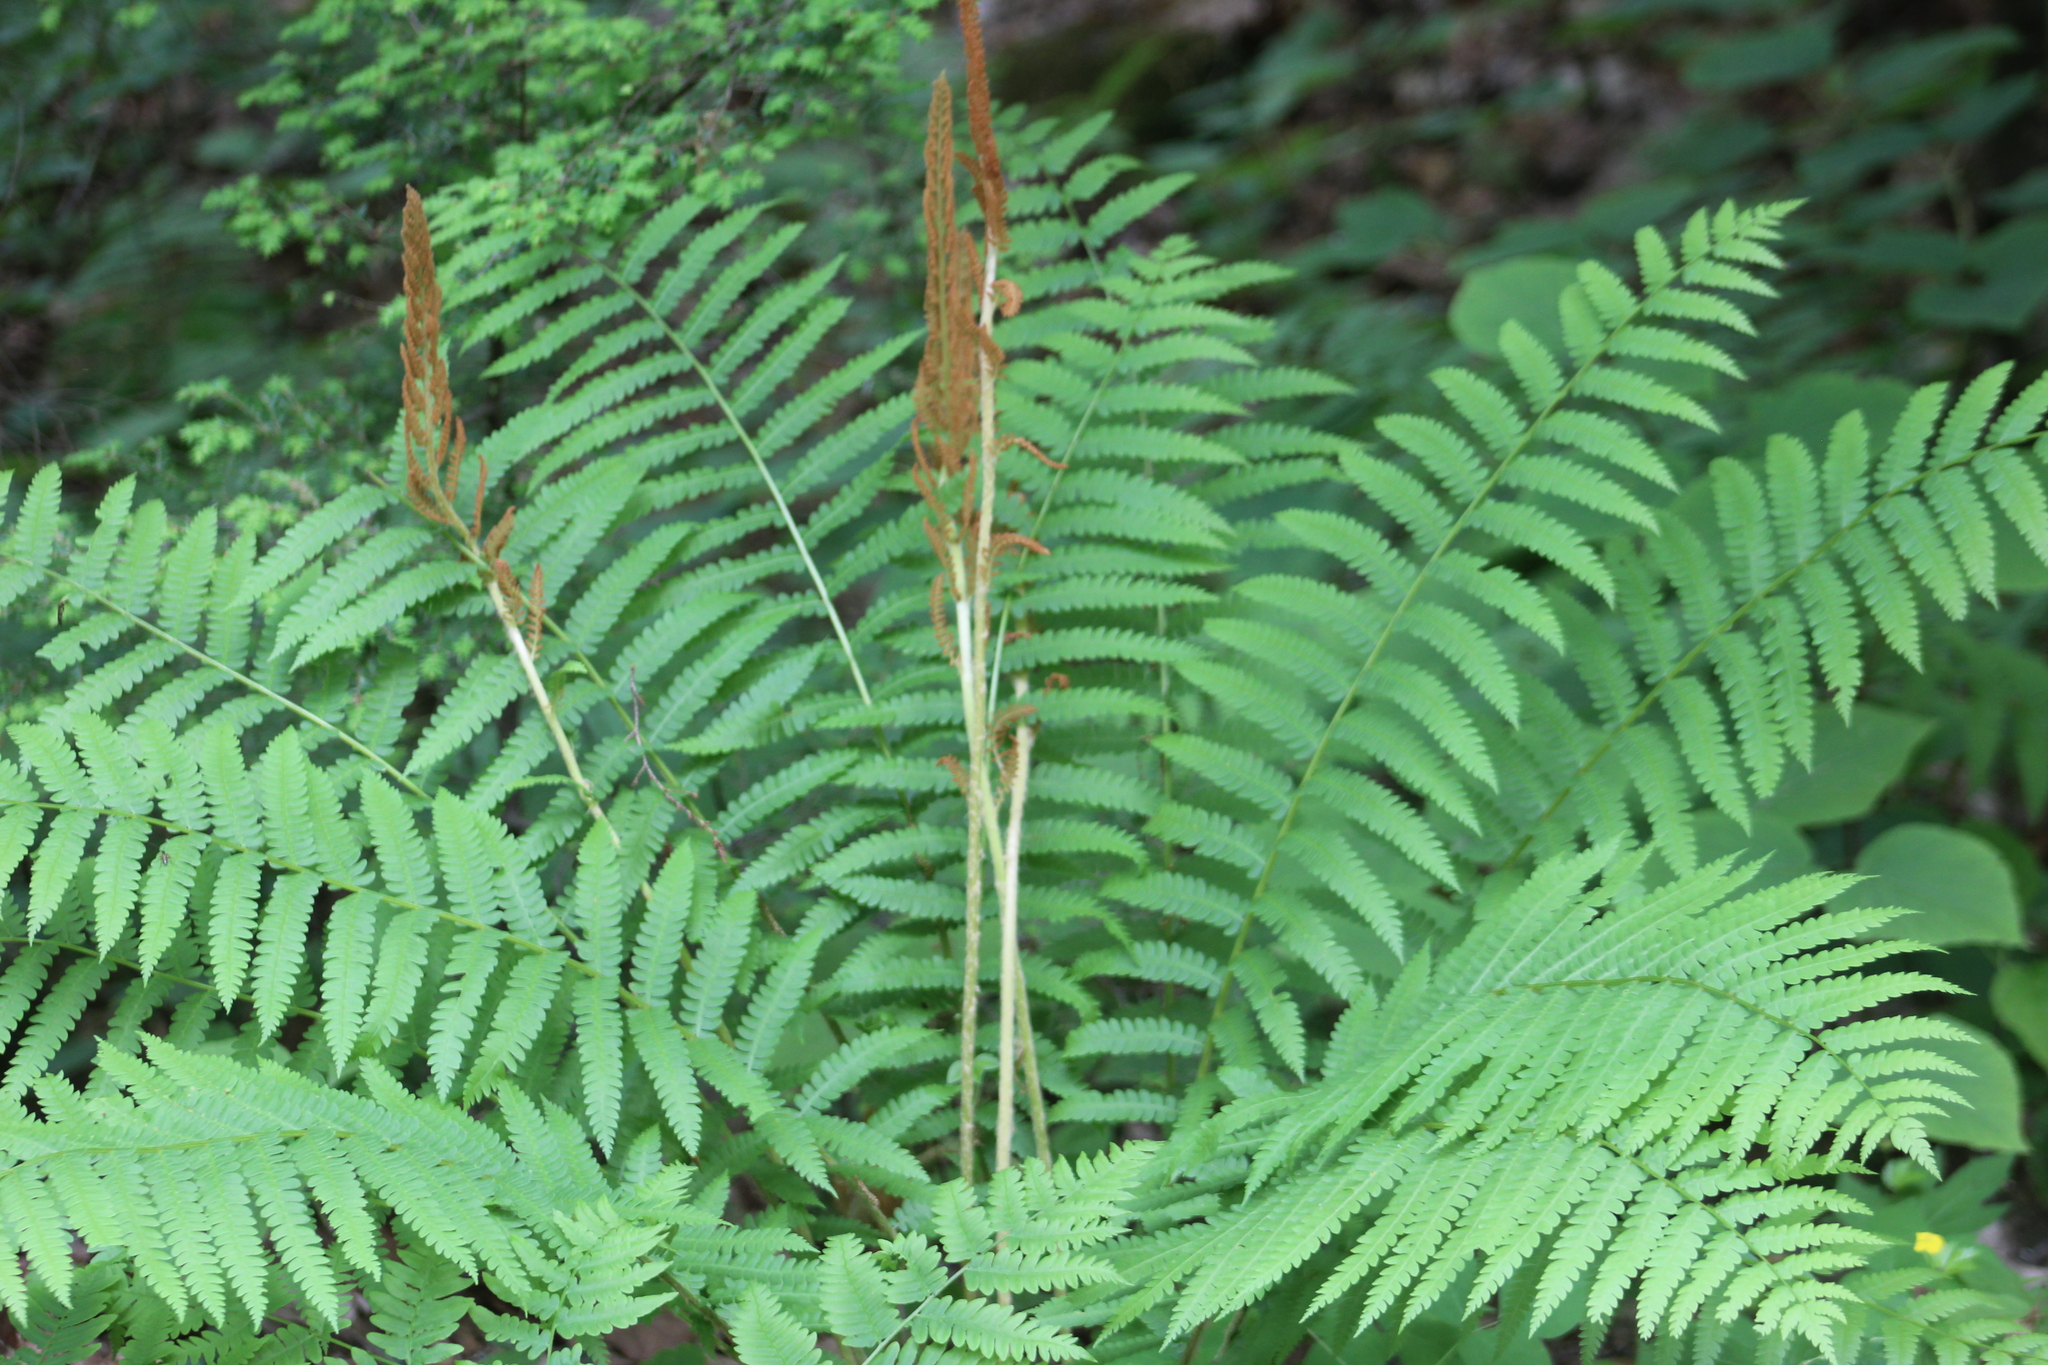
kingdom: Plantae
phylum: Tracheophyta
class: Polypodiopsida
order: Osmundales
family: Osmundaceae
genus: Osmundastrum
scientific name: Osmundastrum cinnamomeum
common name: Cinnamon fern
